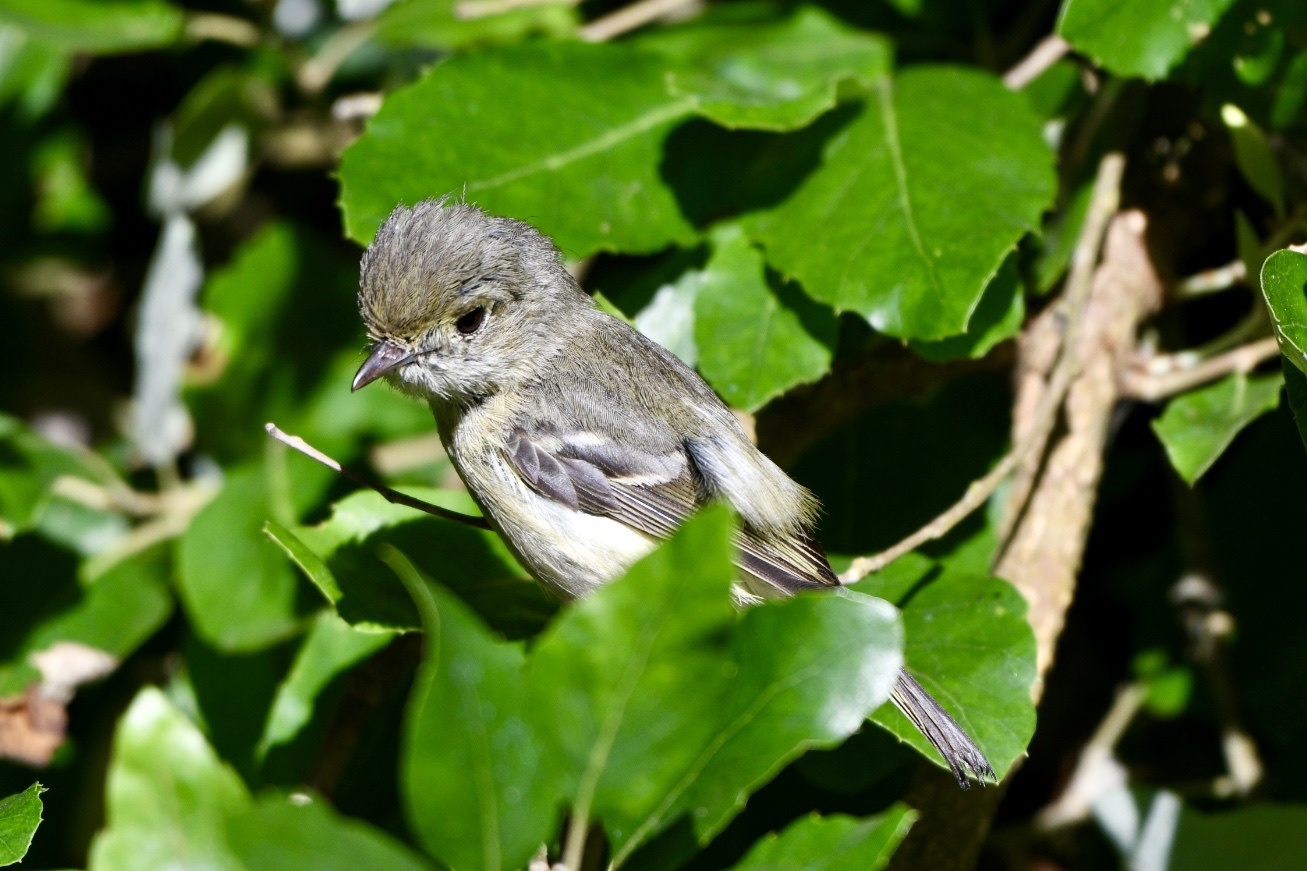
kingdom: Animalia
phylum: Chordata
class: Aves
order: Passeriformes
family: Vireonidae
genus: Vireo
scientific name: Vireo huttoni
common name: Hutton's vireo
